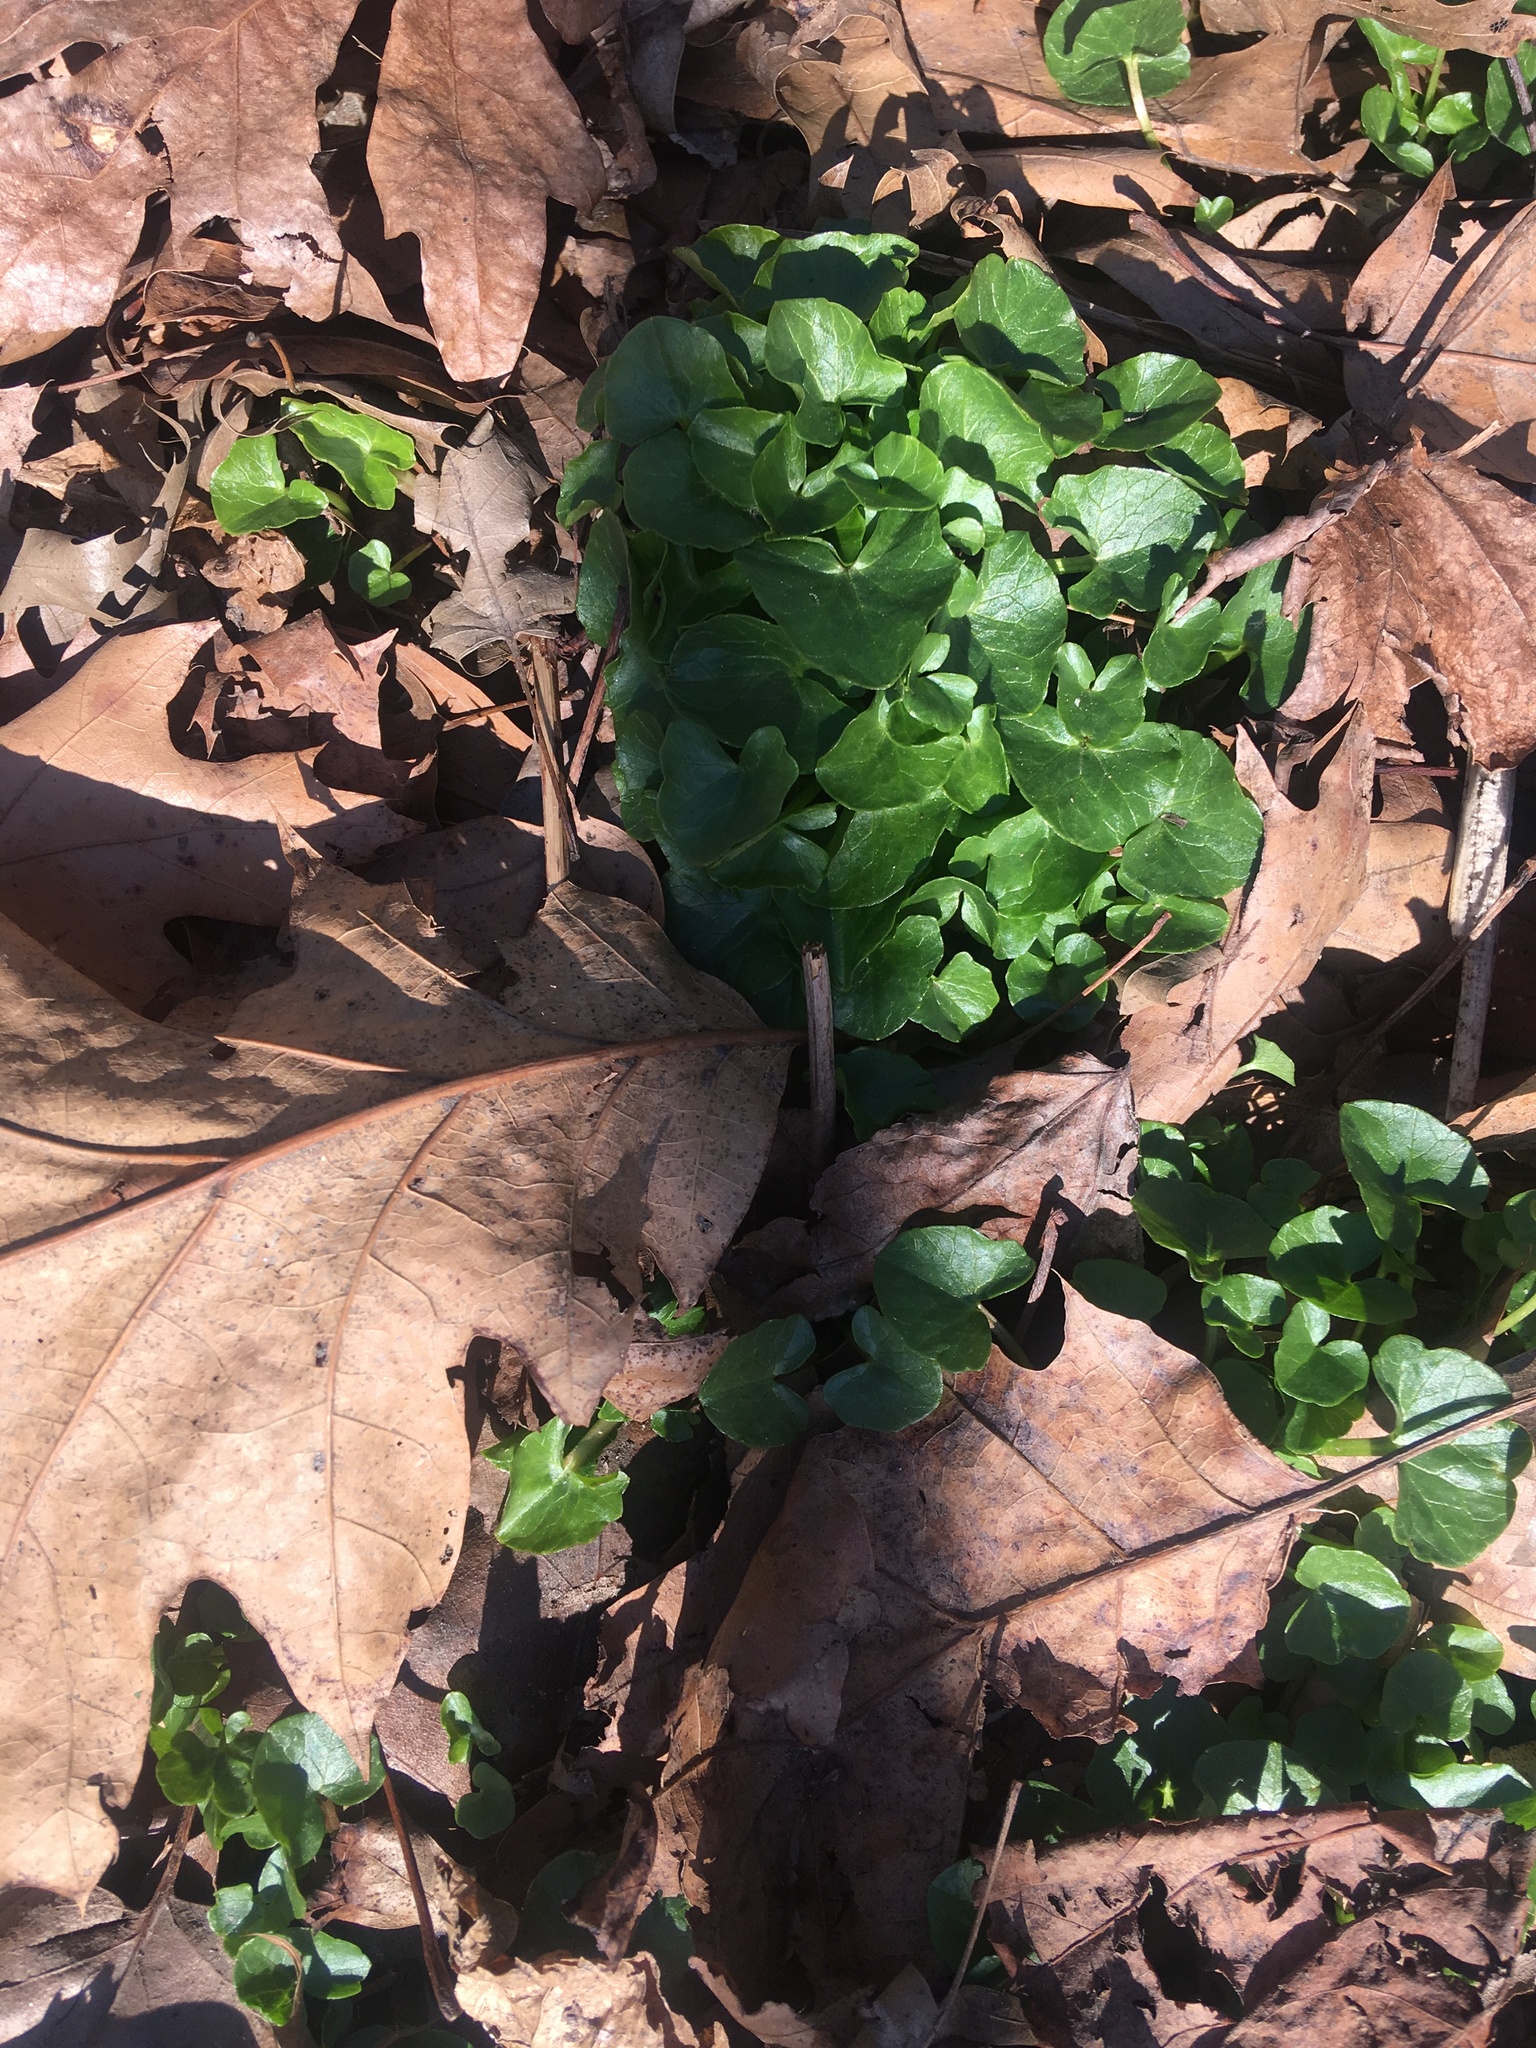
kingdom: Plantae
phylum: Tracheophyta
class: Magnoliopsida
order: Ranunculales
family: Ranunculaceae
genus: Ficaria
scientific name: Ficaria verna
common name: Lesser celandine
